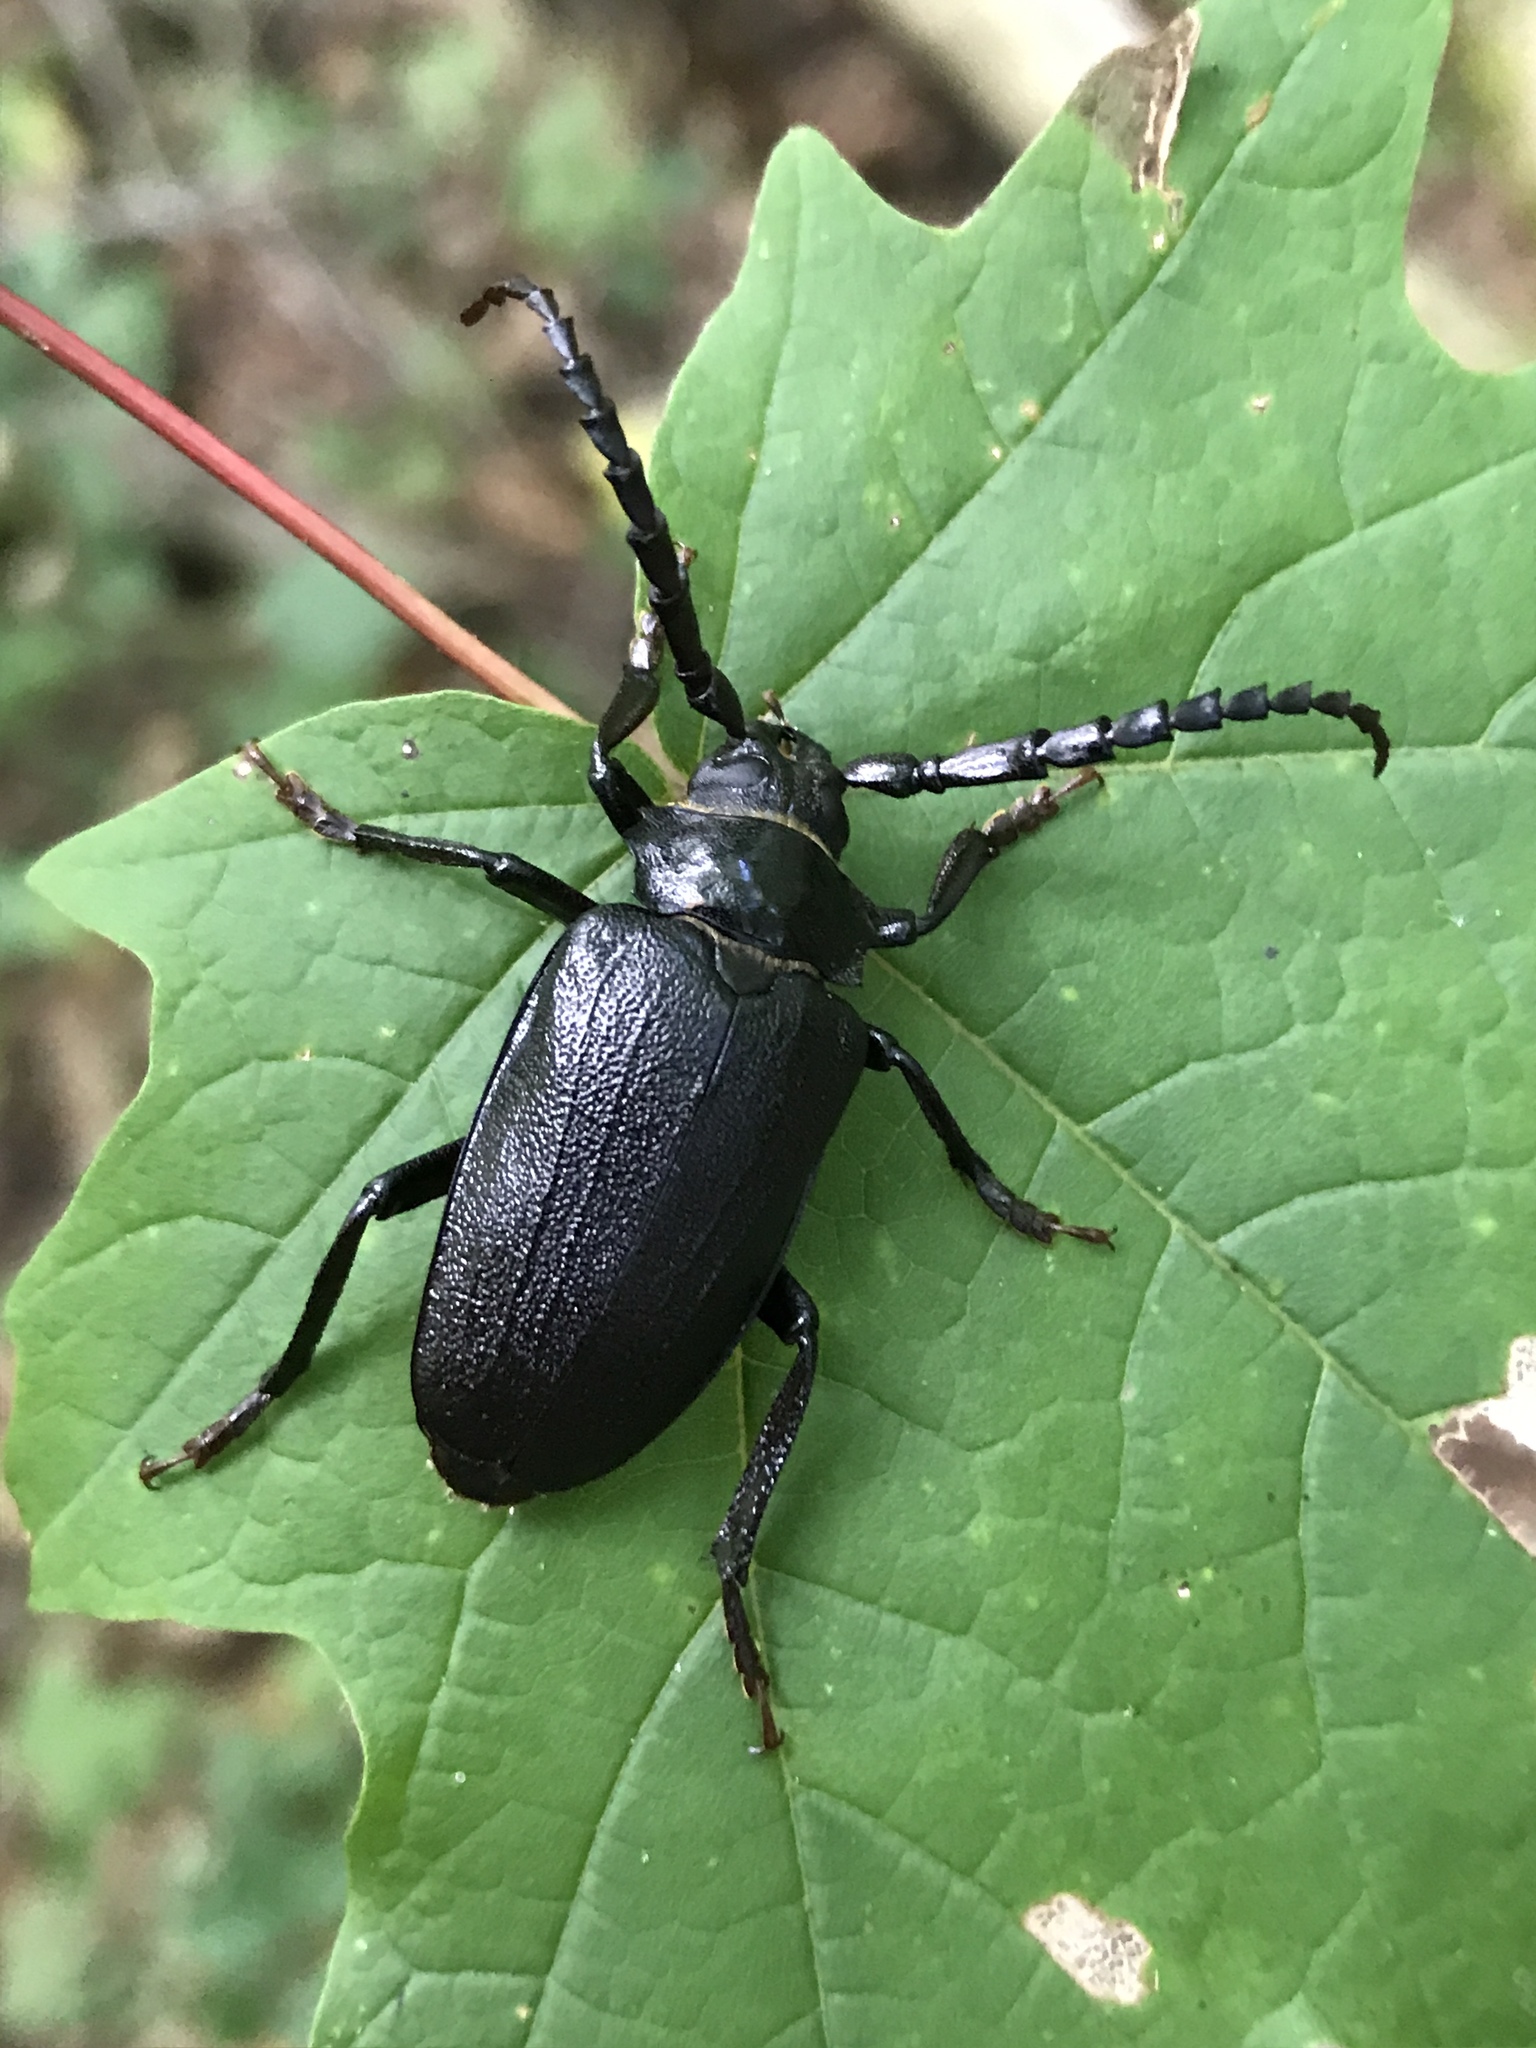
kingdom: Animalia
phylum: Arthropoda
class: Insecta
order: Coleoptera
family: Cerambycidae
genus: Prionus
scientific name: Prionus laticollis
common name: Broad necked prionus
